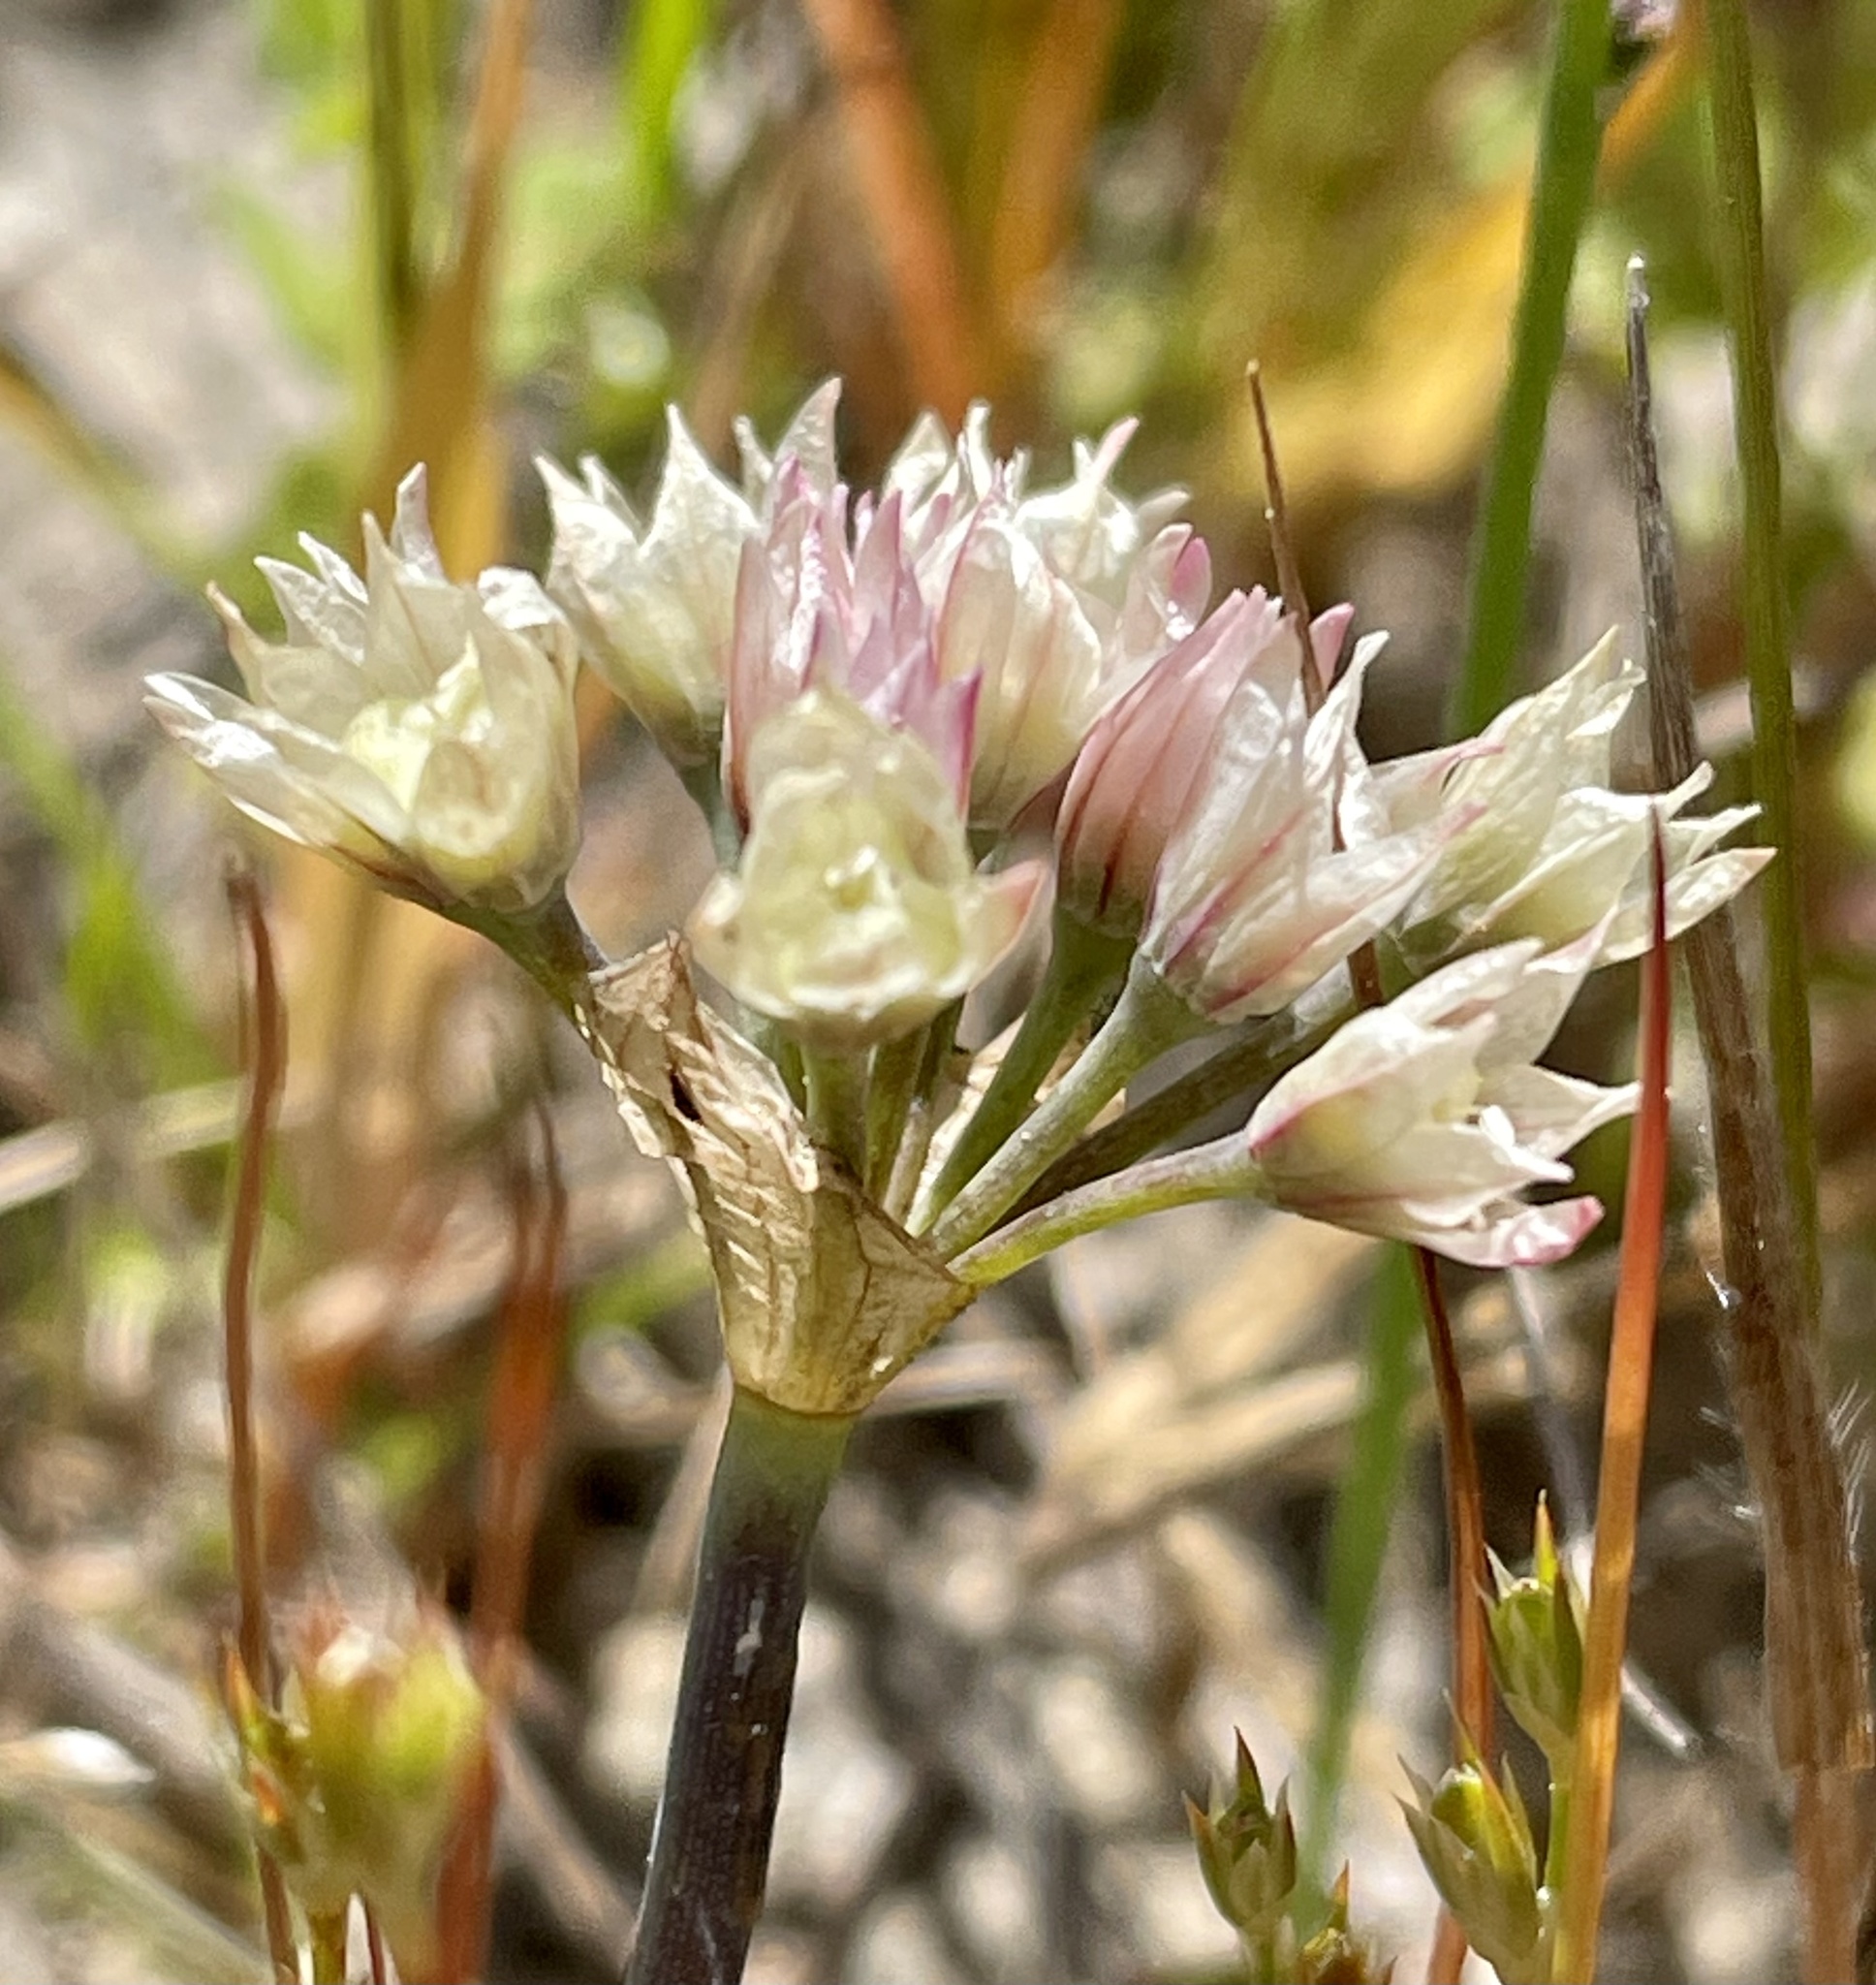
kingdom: Plantae
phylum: Tracheophyta
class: Liliopsida
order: Asparagales
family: Amaryllidaceae
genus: Allium
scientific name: Allium hickmanii
